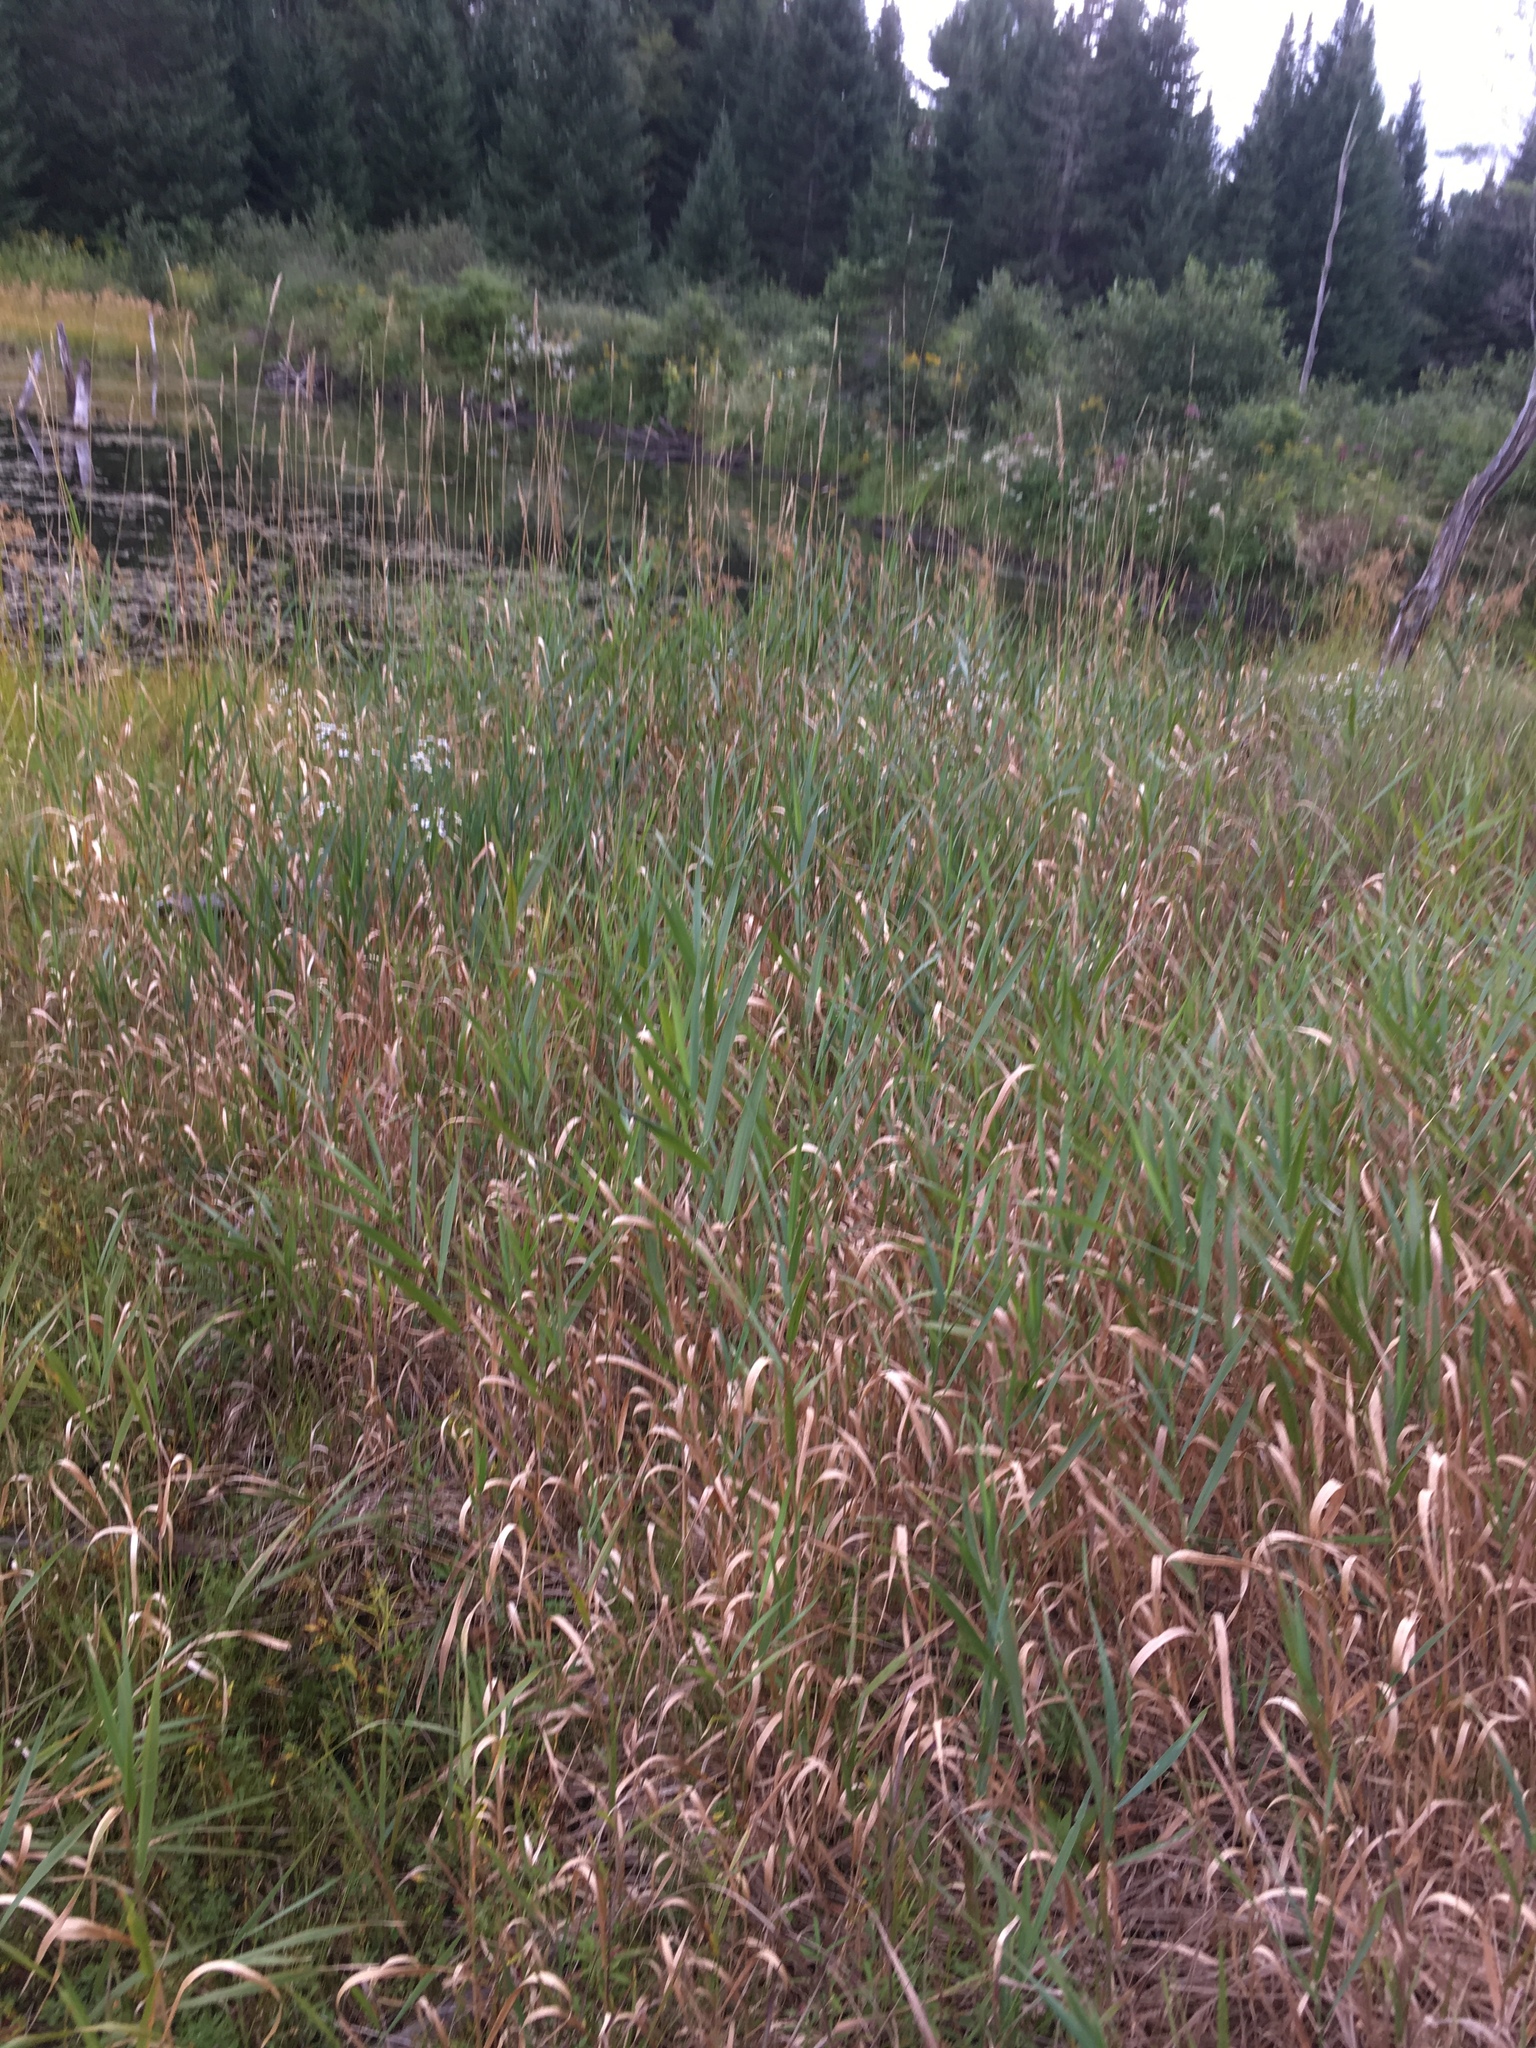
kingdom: Plantae
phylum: Tracheophyta
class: Liliopsida
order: Poales
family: Poaceae
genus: Phalaris
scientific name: Phalaris arundinacea
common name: Reed canary-grass
